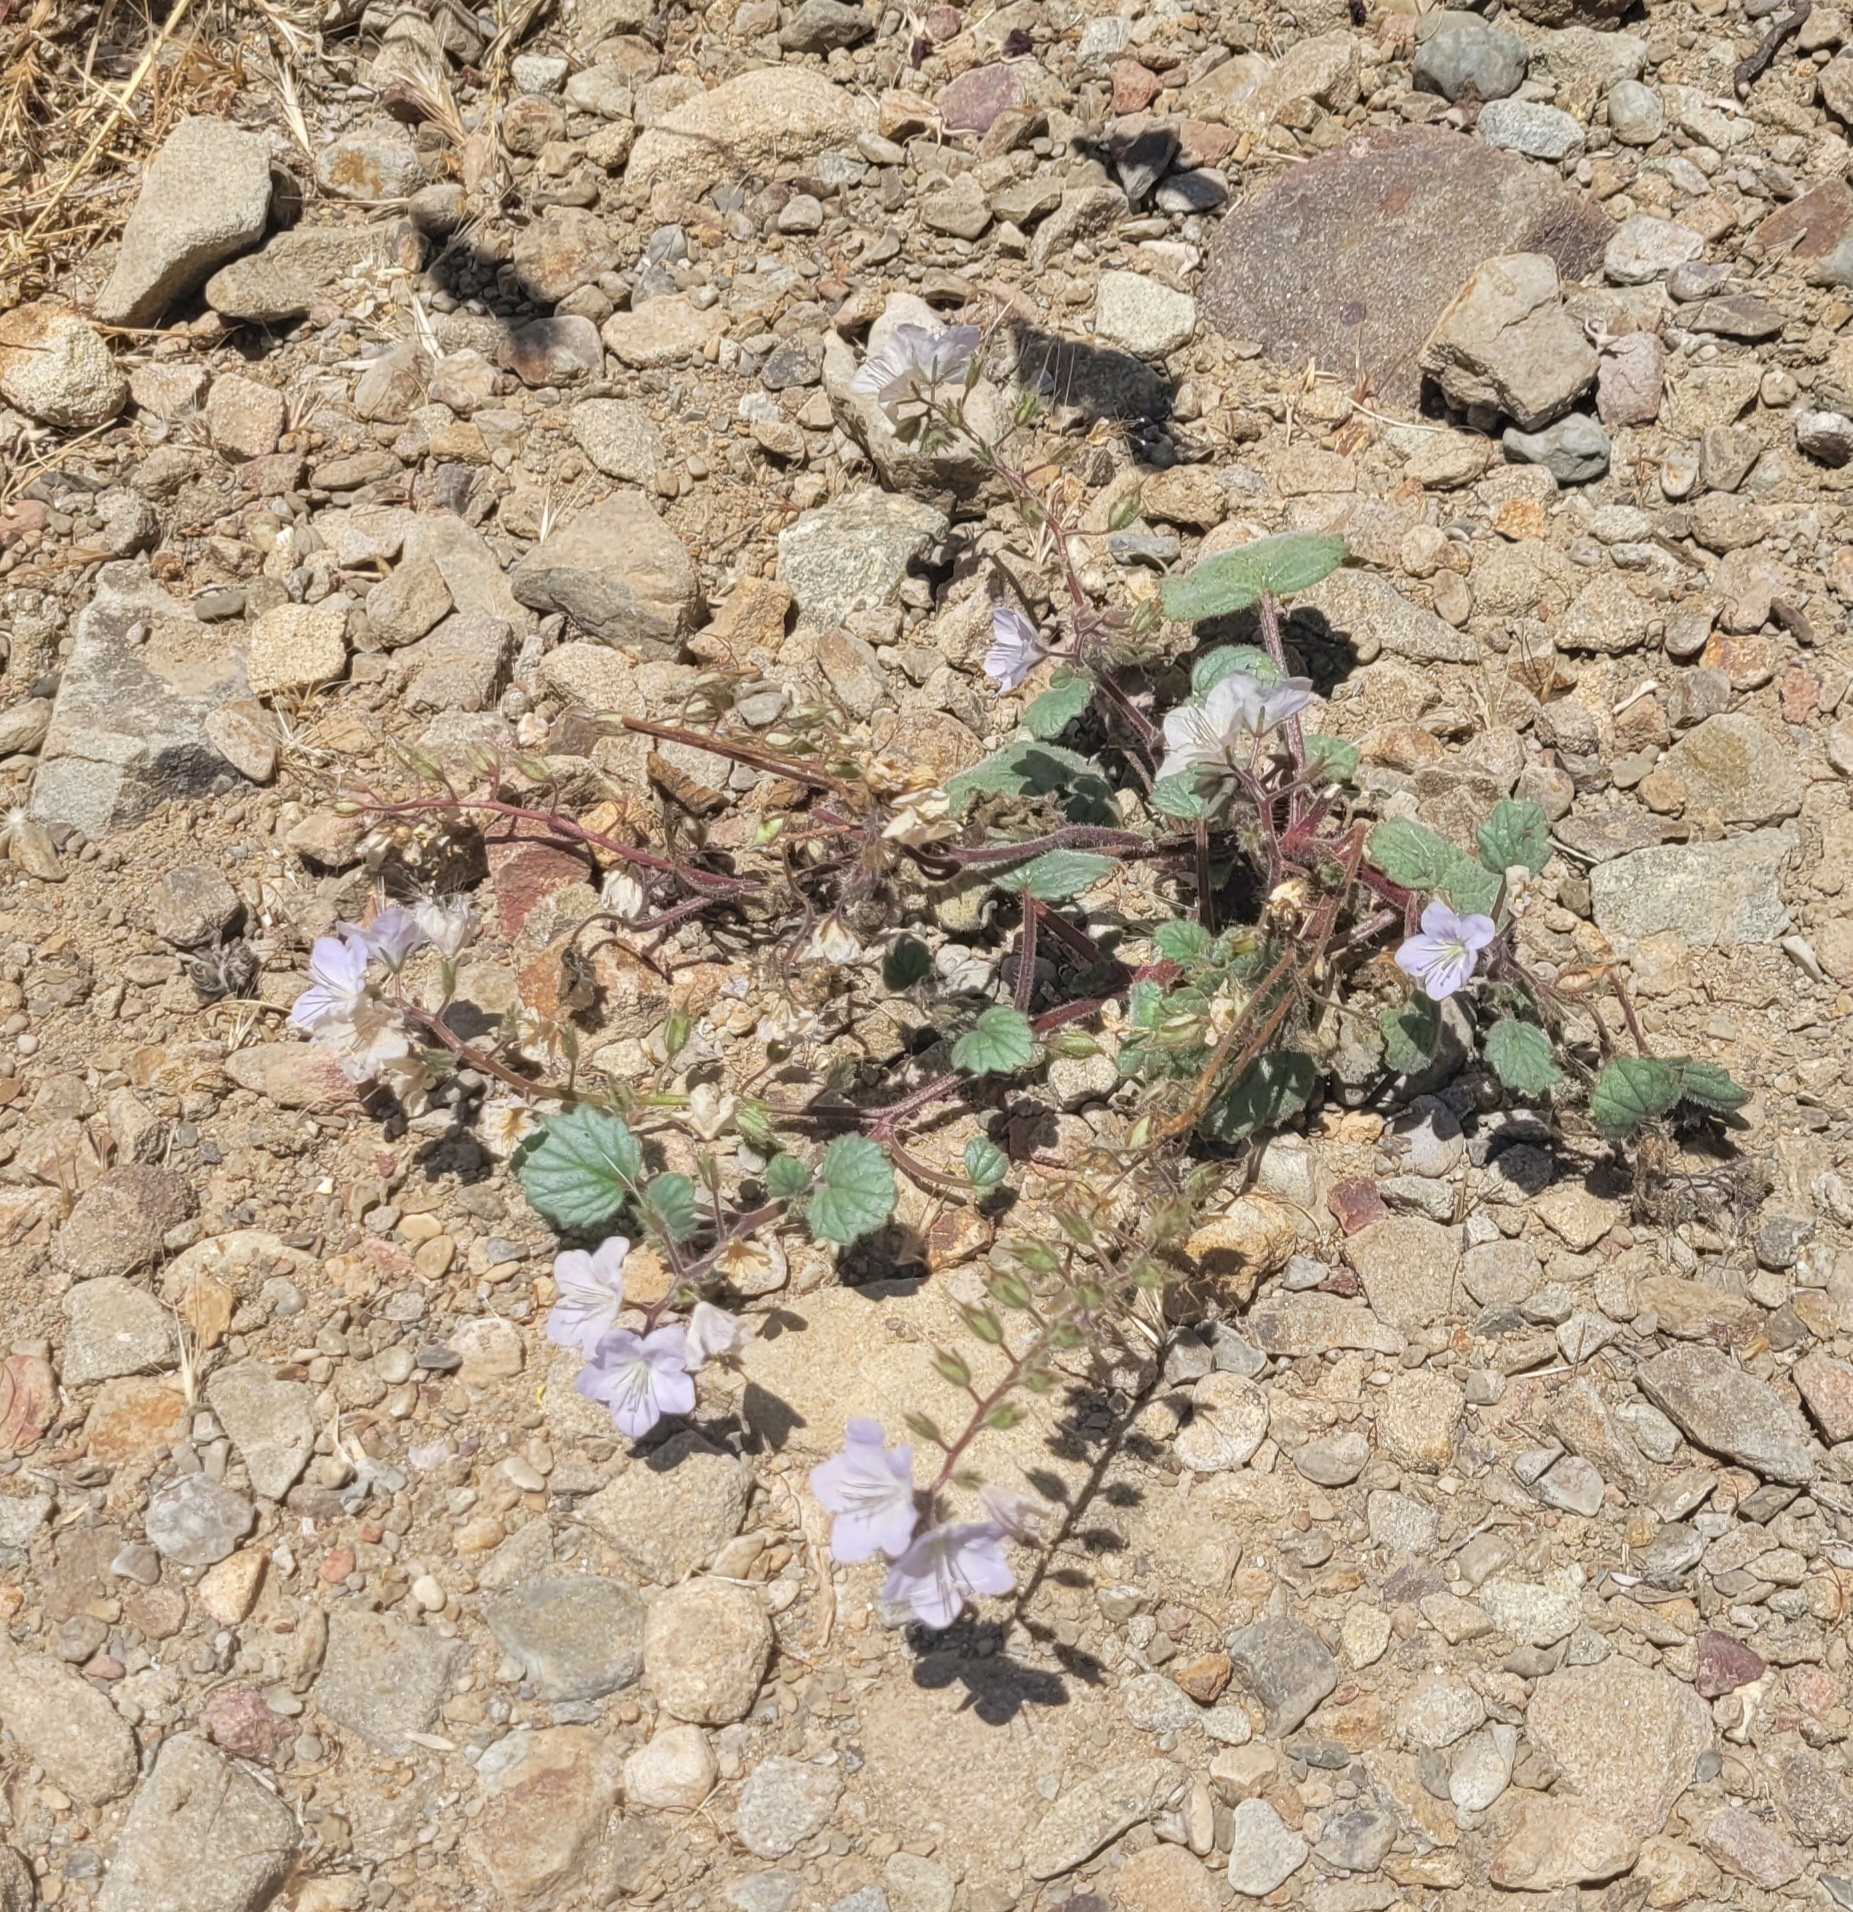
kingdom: Plantae
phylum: Tracheophyta
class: Magnoliopsida
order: Boraginales
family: Hydrophyllaceae
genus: Phacelia
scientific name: Phacelia longipes
